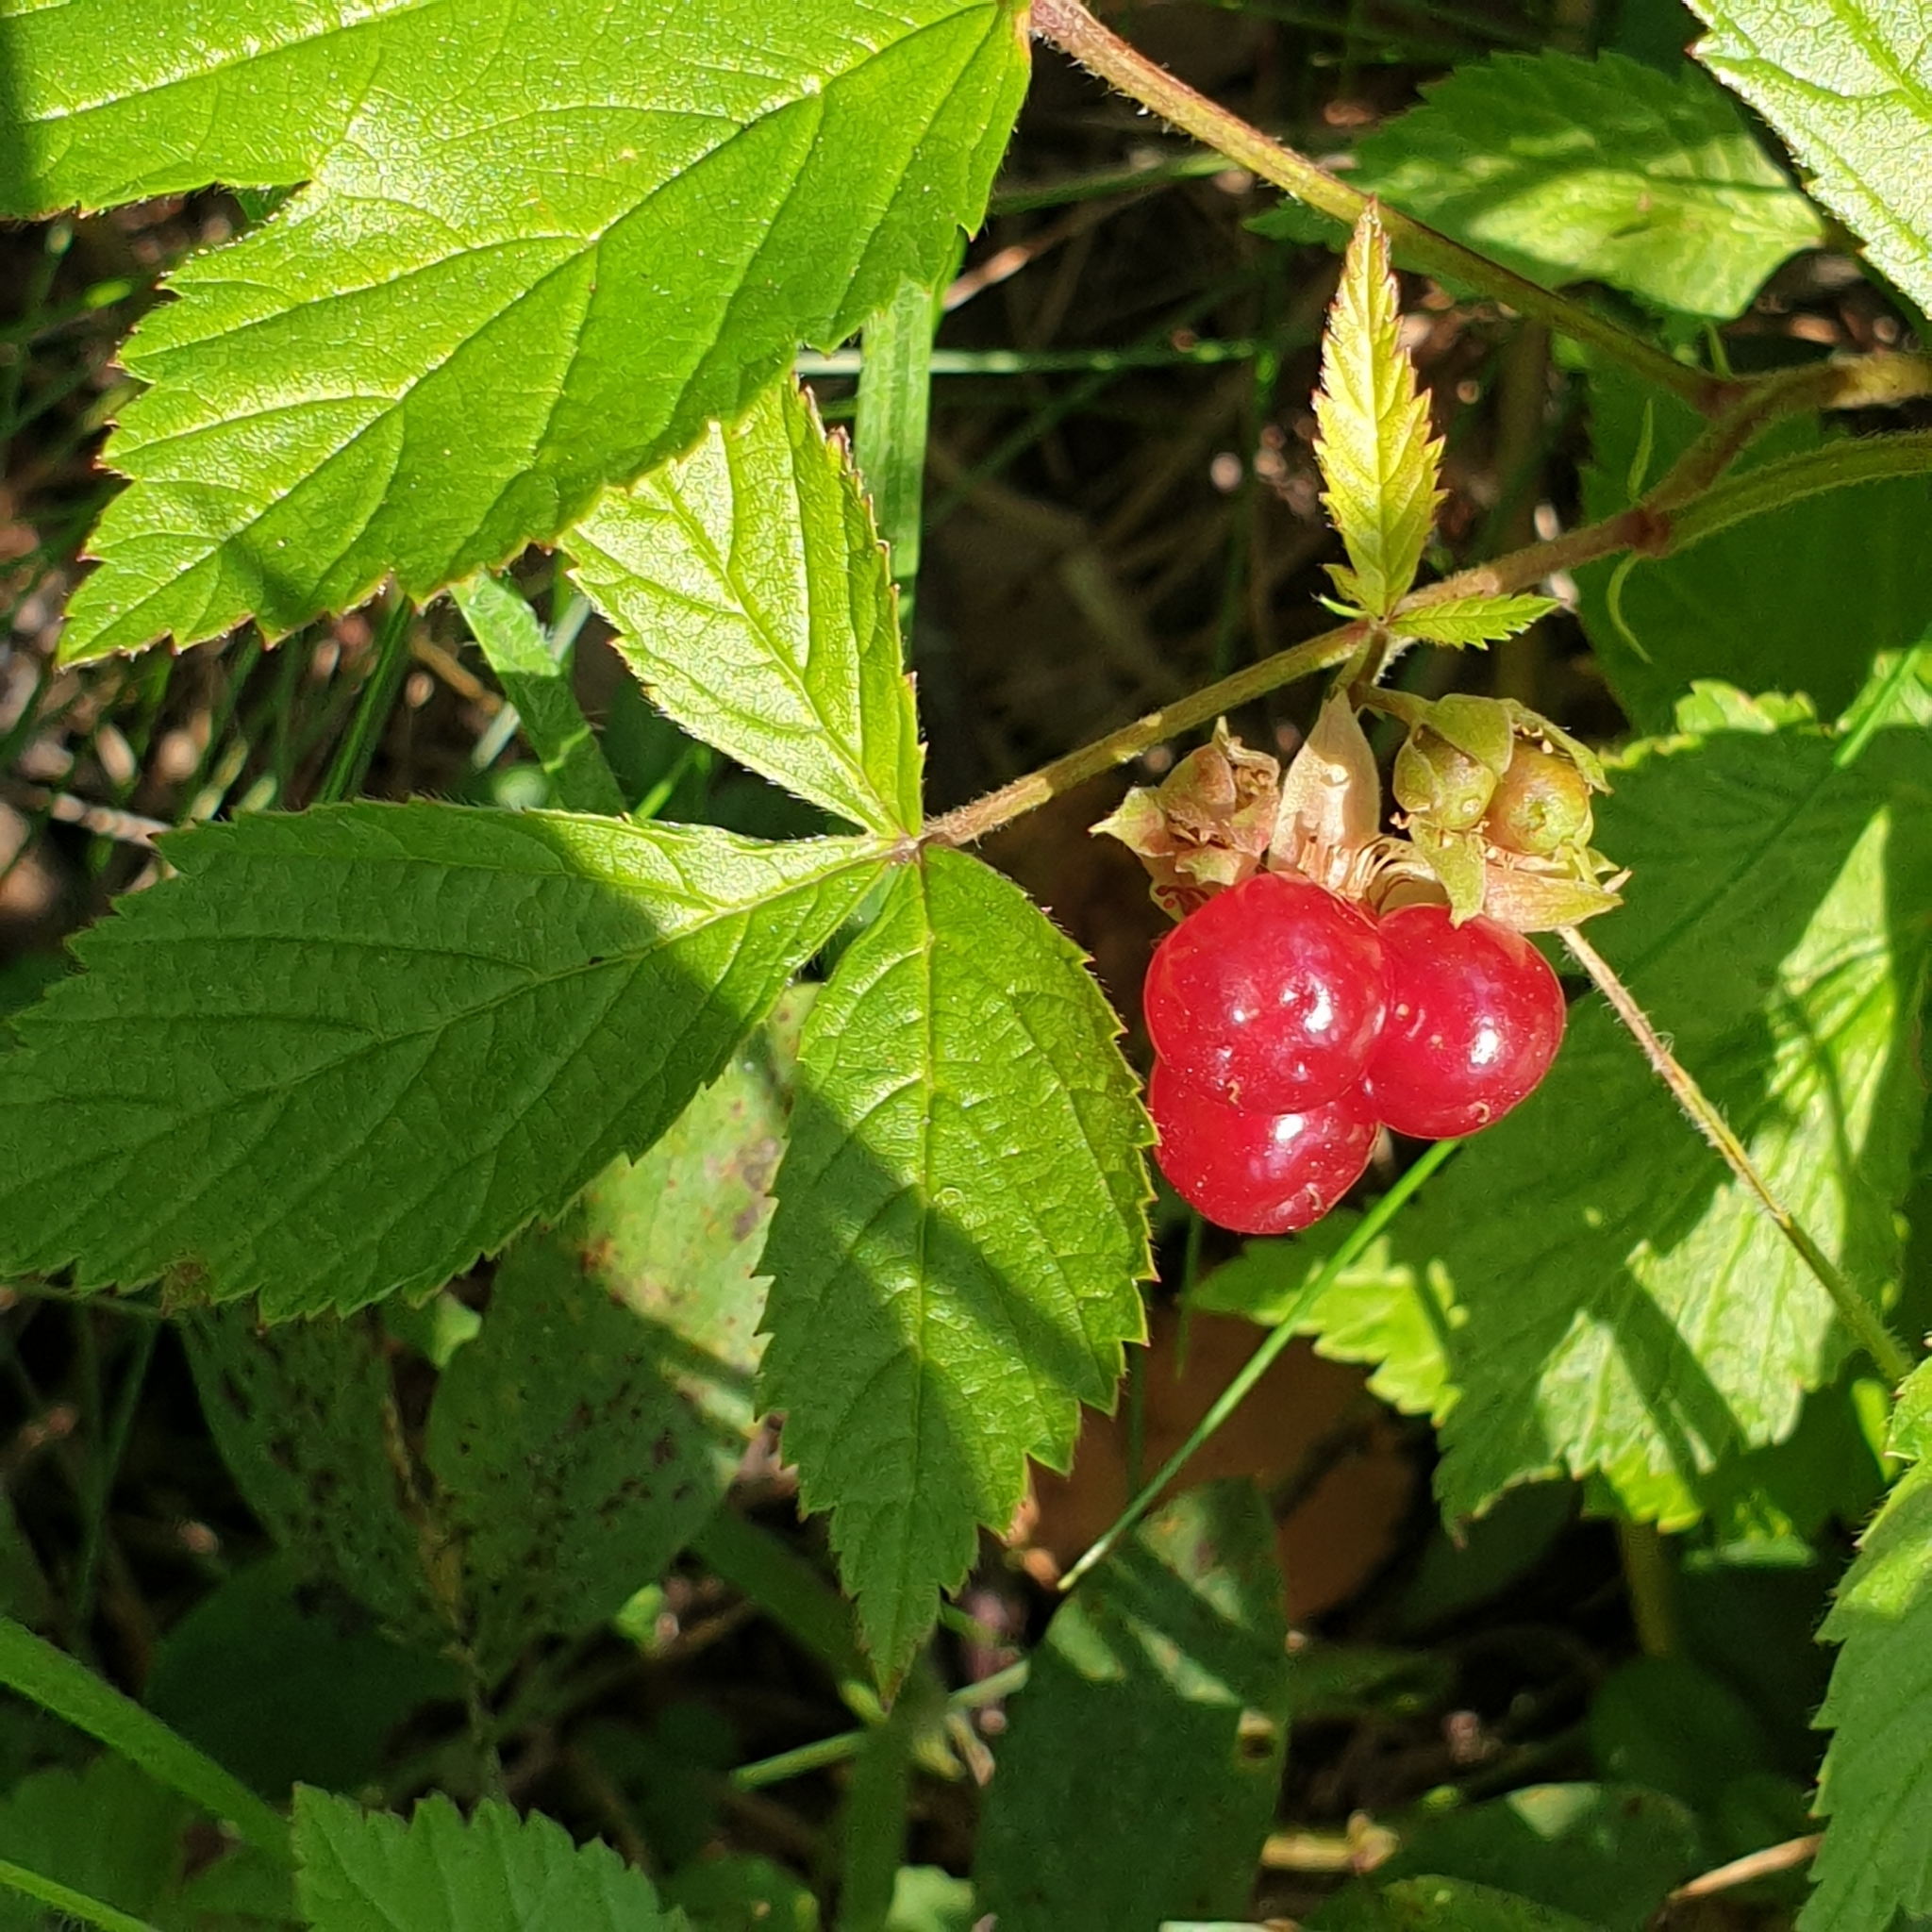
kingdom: Plantae
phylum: Tracheophyta
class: Magnoliopsida
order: Rosales
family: Rosaceae
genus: Rubus
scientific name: Rubus saxatilis
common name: Stone bramble
